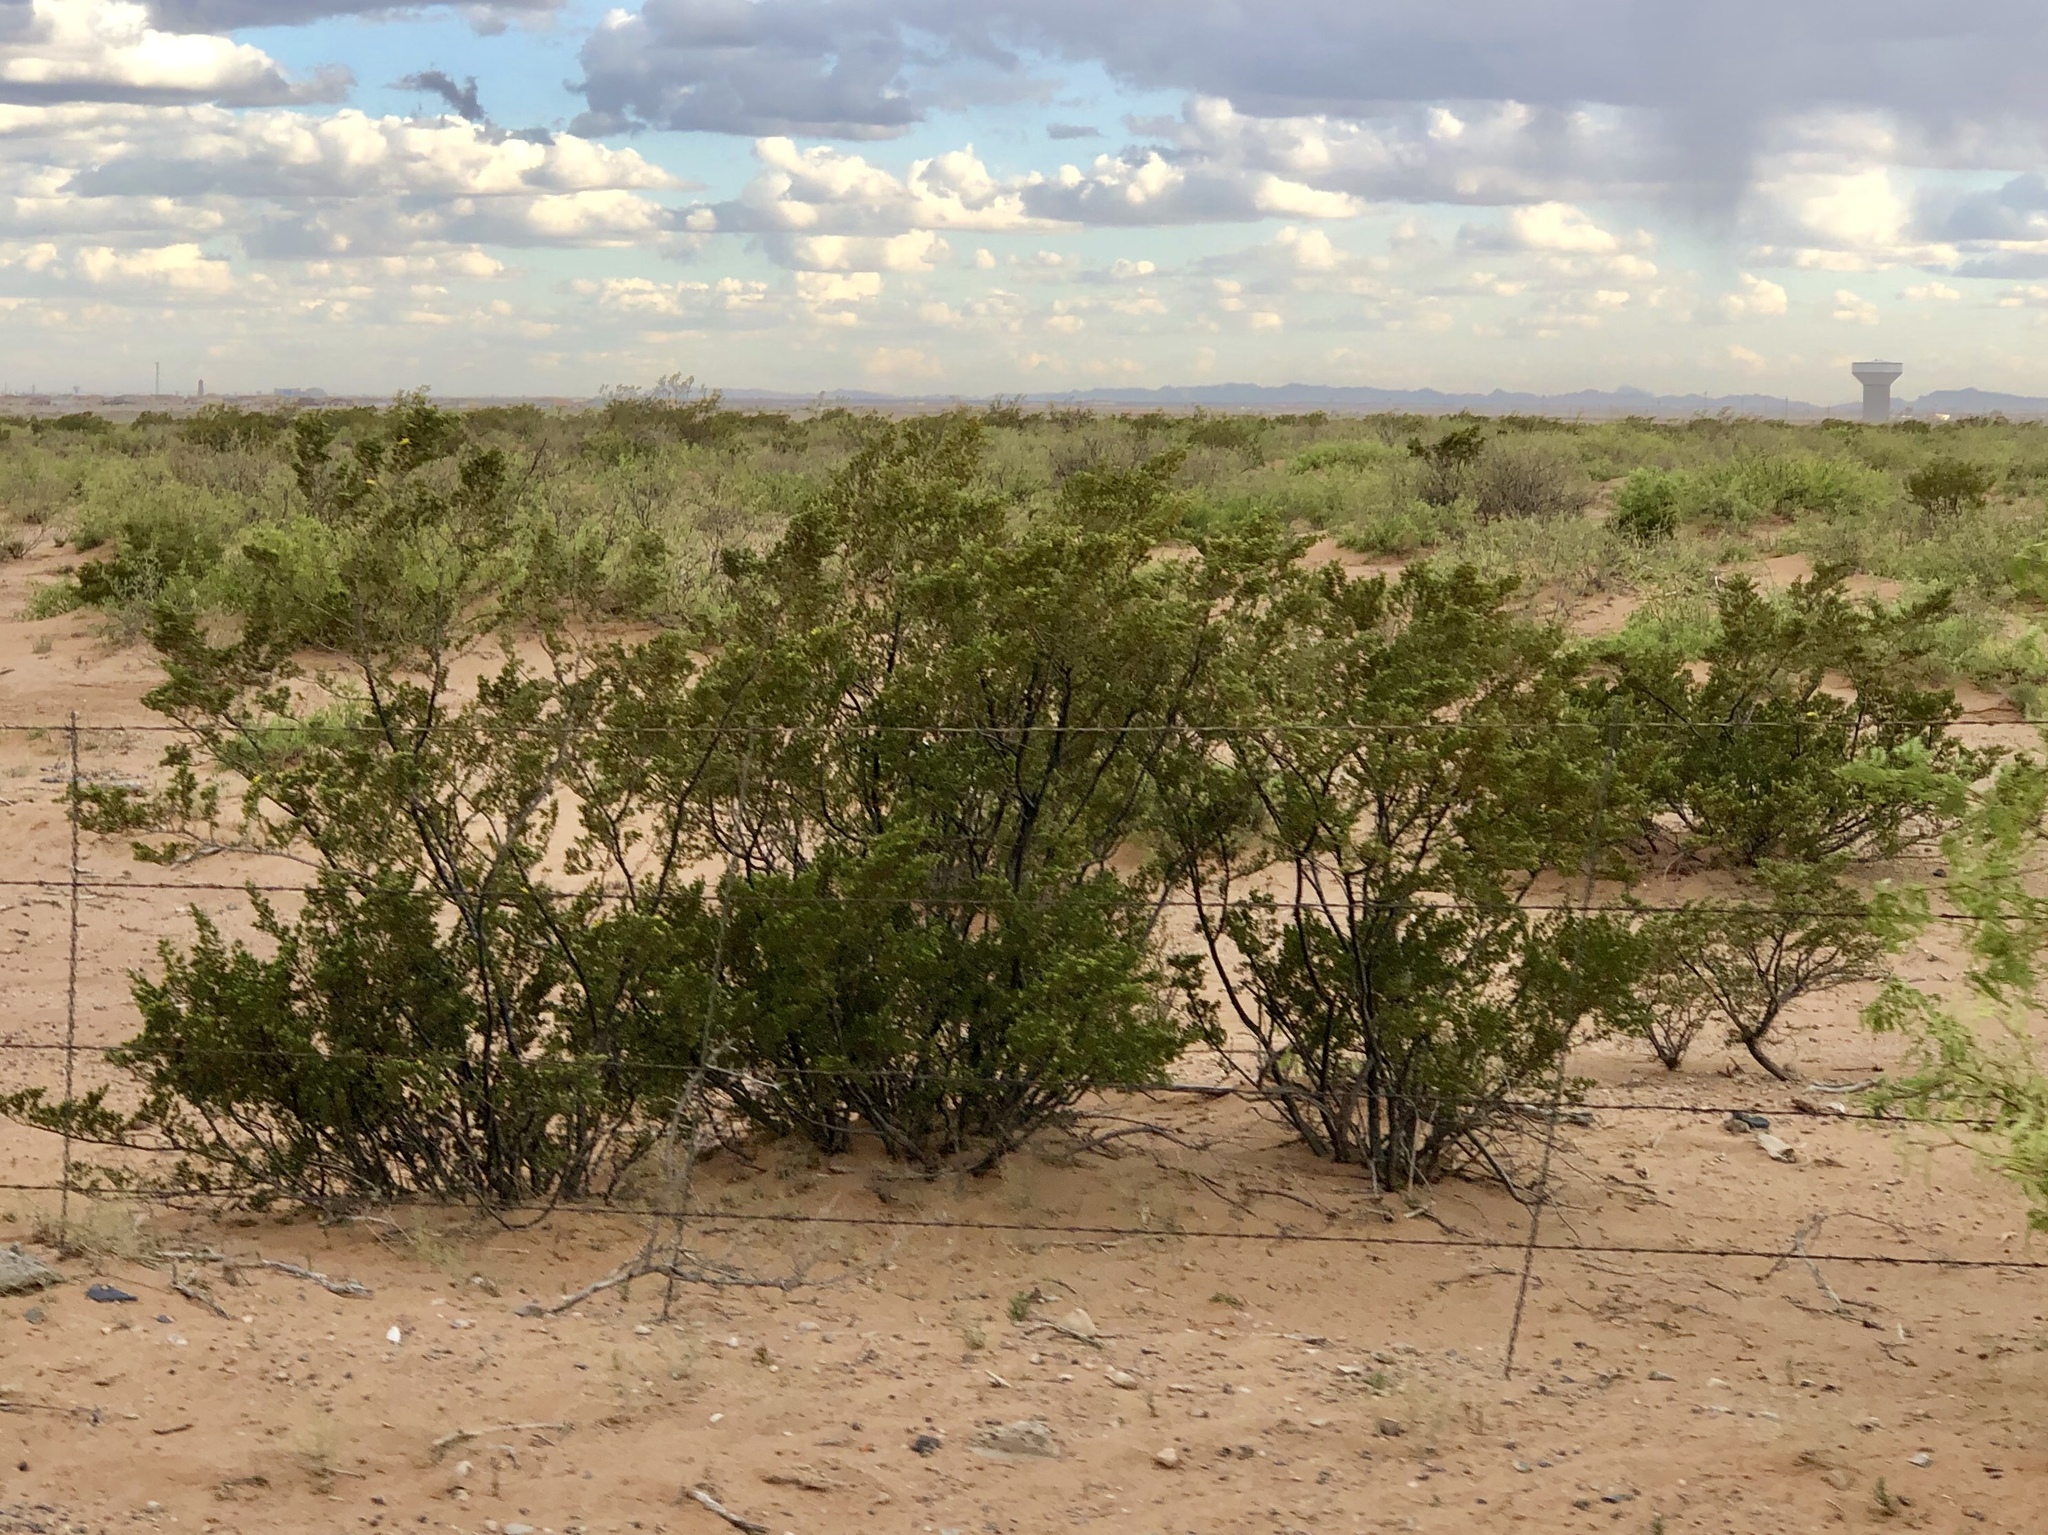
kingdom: Plantae
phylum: Tracheophyta
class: Magnoliopsida
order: Zygophyllales
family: Zygophyllaceae
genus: Larrea
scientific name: Larrea tridentata
